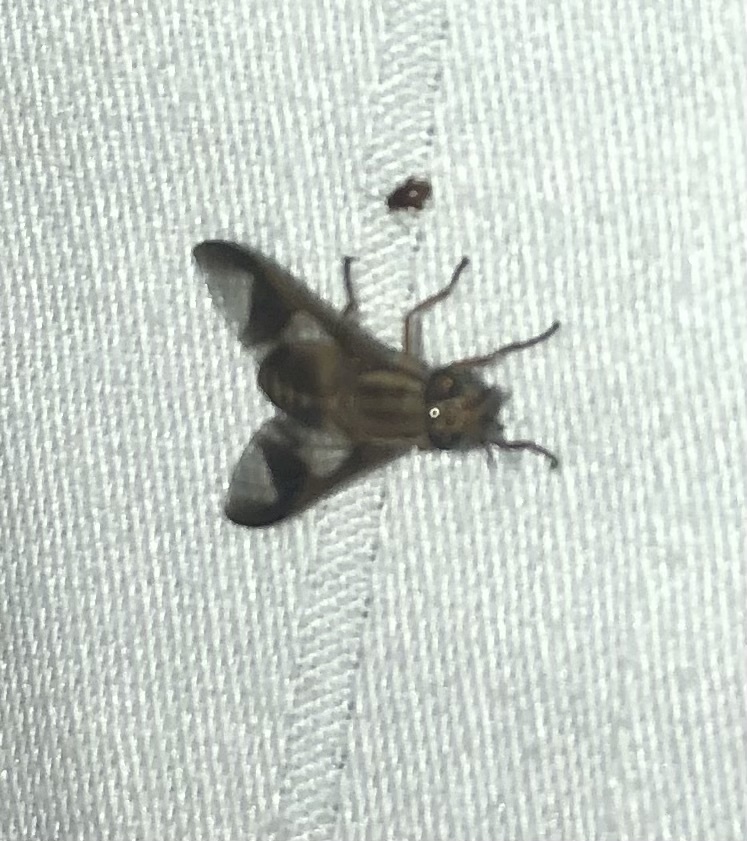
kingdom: Animalia
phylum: Arthropoda
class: Insecta
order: Diptera
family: Tabanidae
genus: Chrysops
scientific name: Chrysops flavidus
